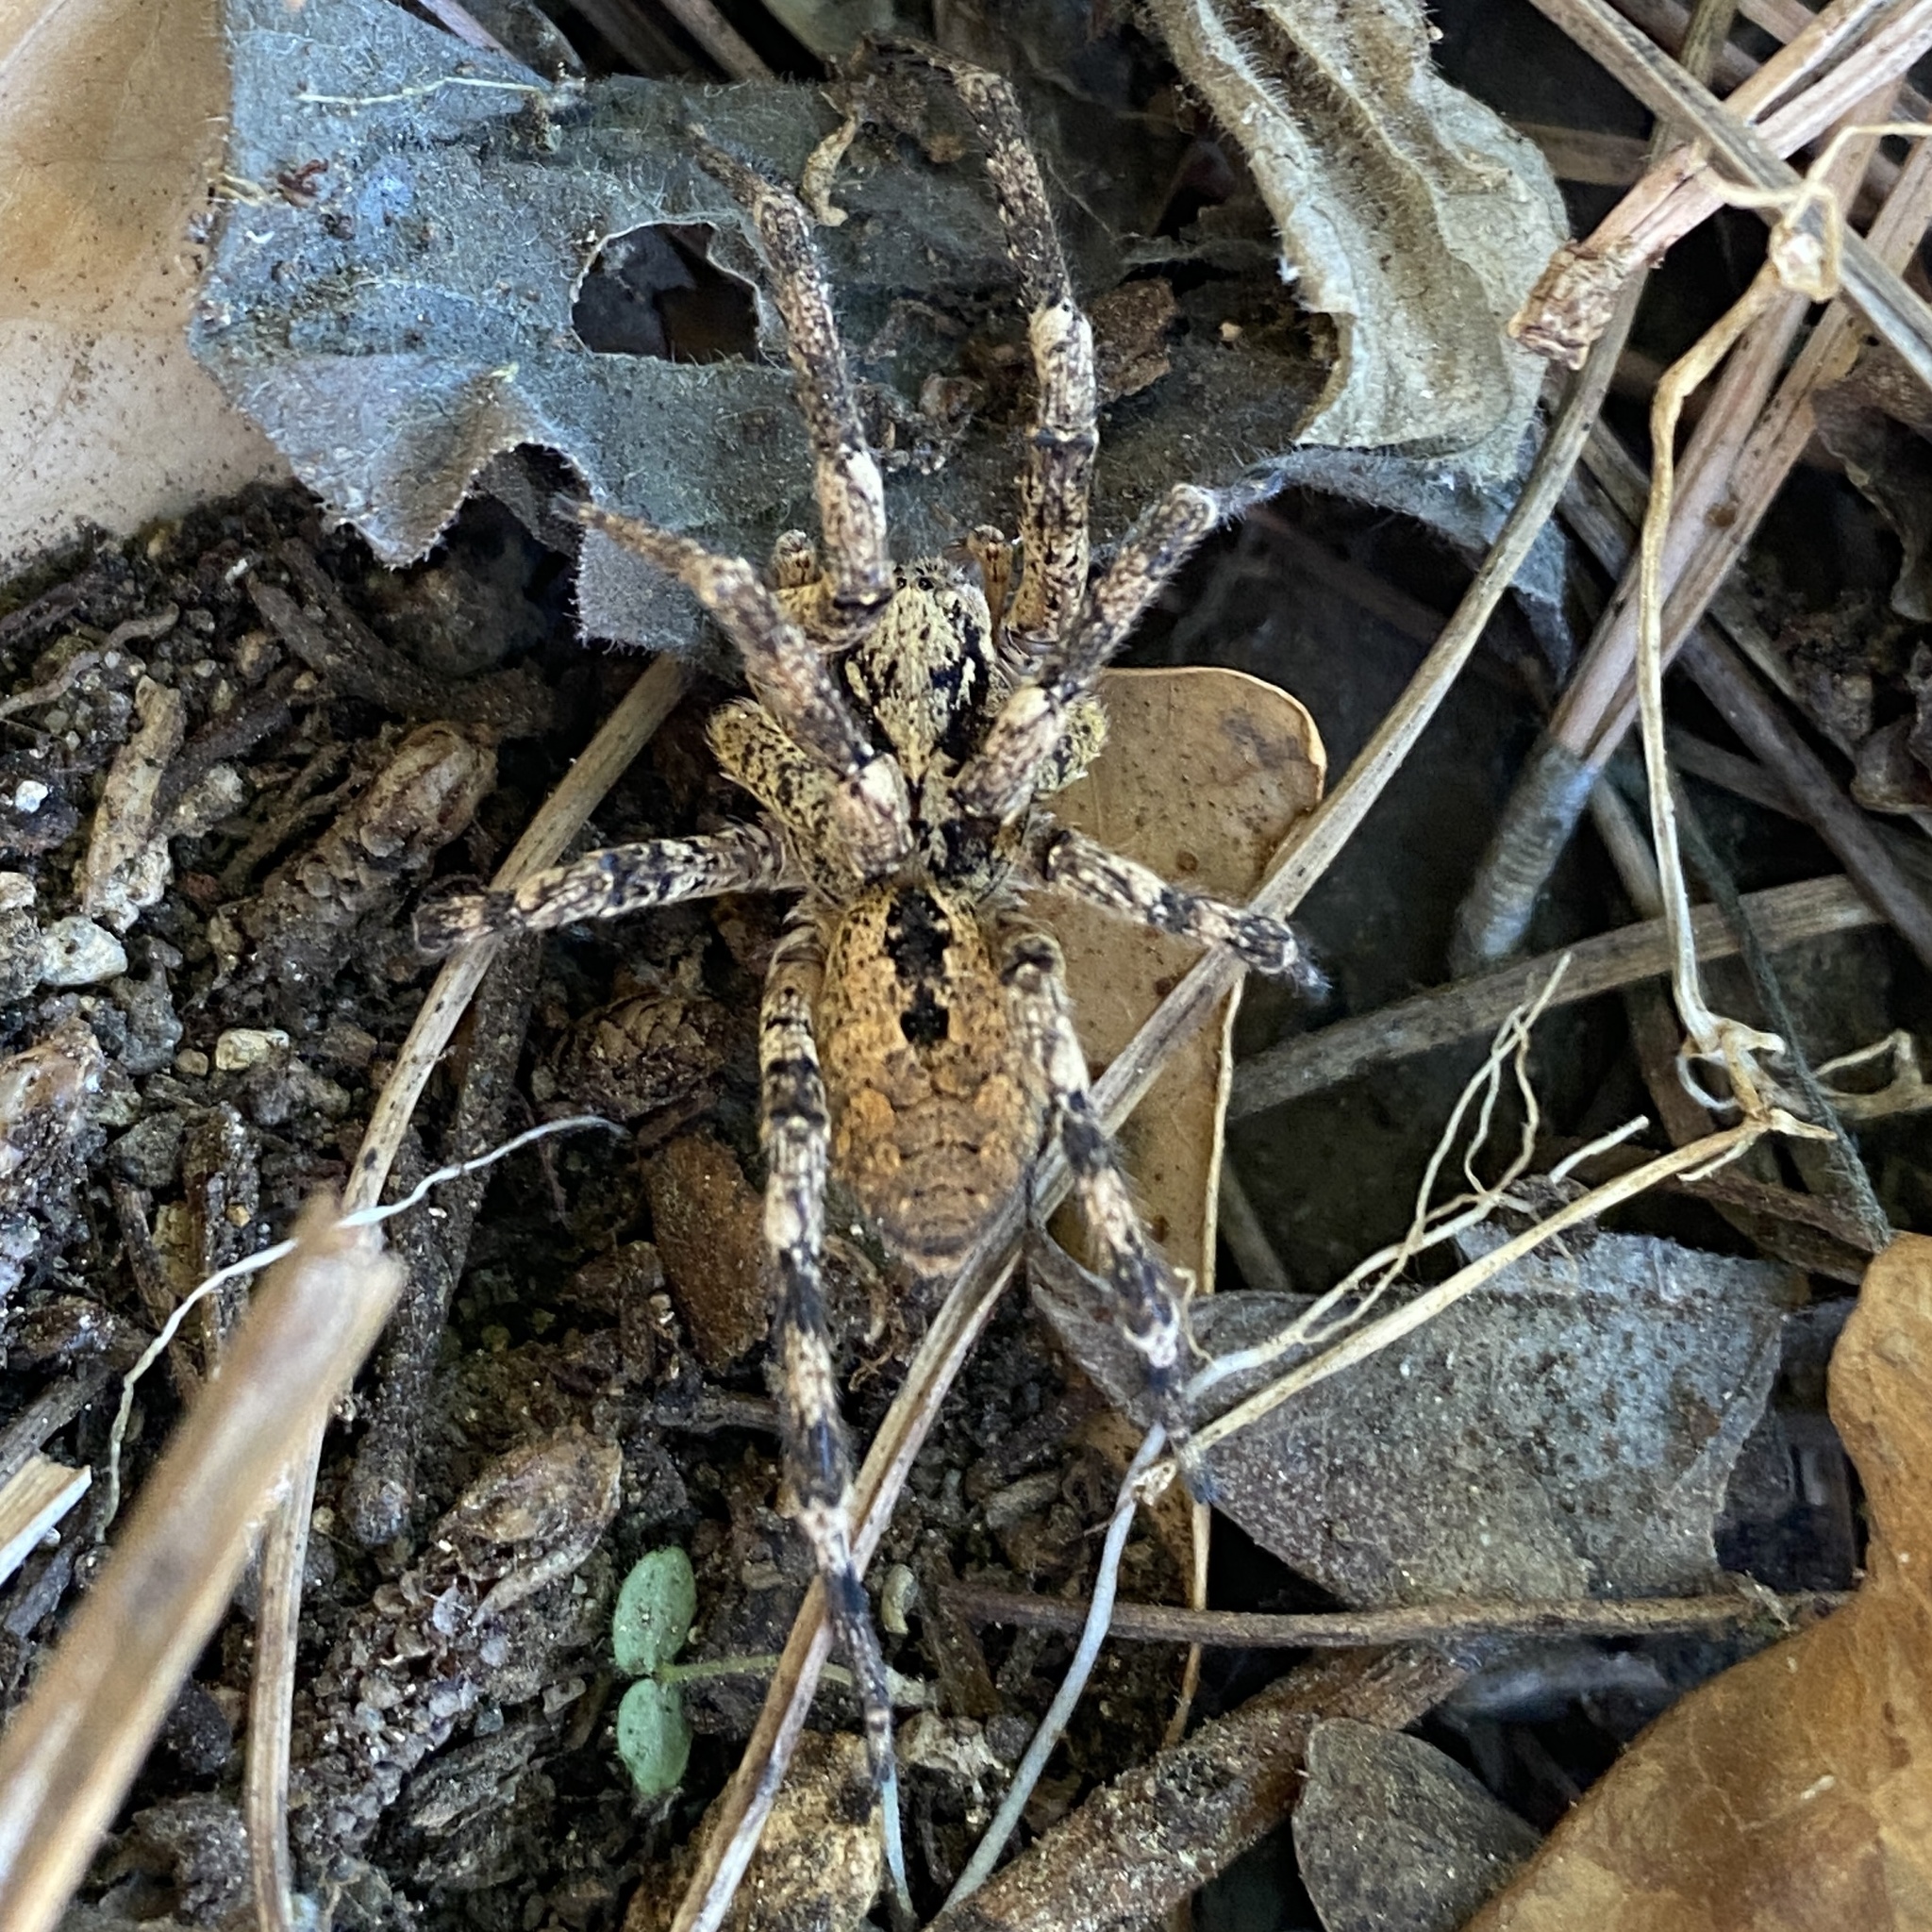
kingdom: Animalia
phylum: Arthropoda
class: Arachnida
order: Araneae
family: Zoropsidae
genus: Zoropsis
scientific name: Zoropsis spinimana
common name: Zoropsid spider
